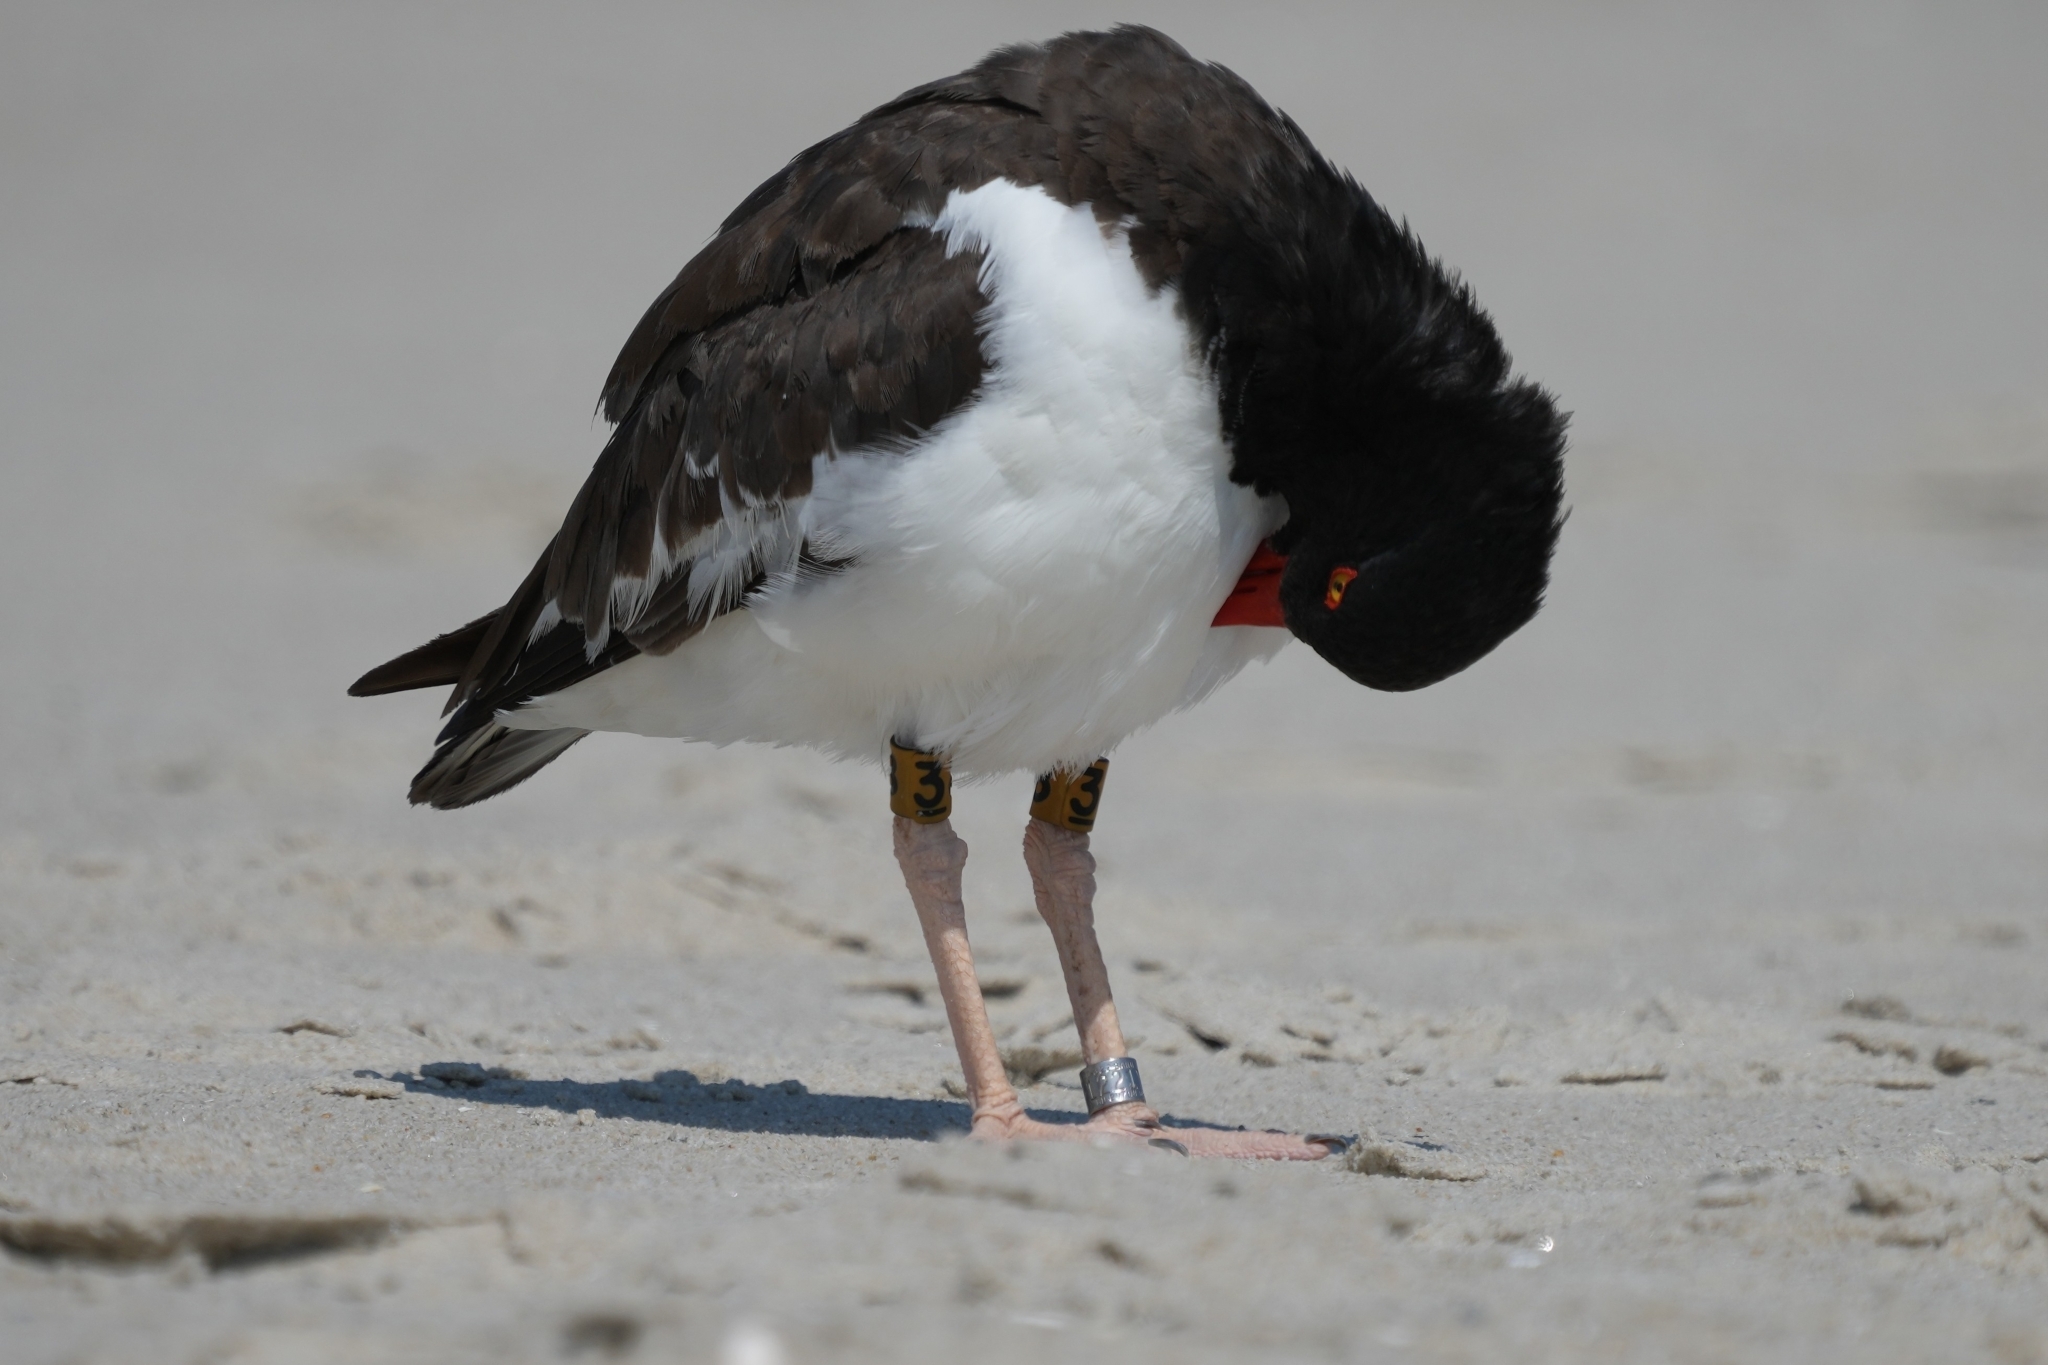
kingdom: Animalia
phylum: Chordata
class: Aves
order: Charadriiformes
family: Haematopodidae
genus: Haematopus
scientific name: Haematopus palliatus
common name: American oystercatcher
